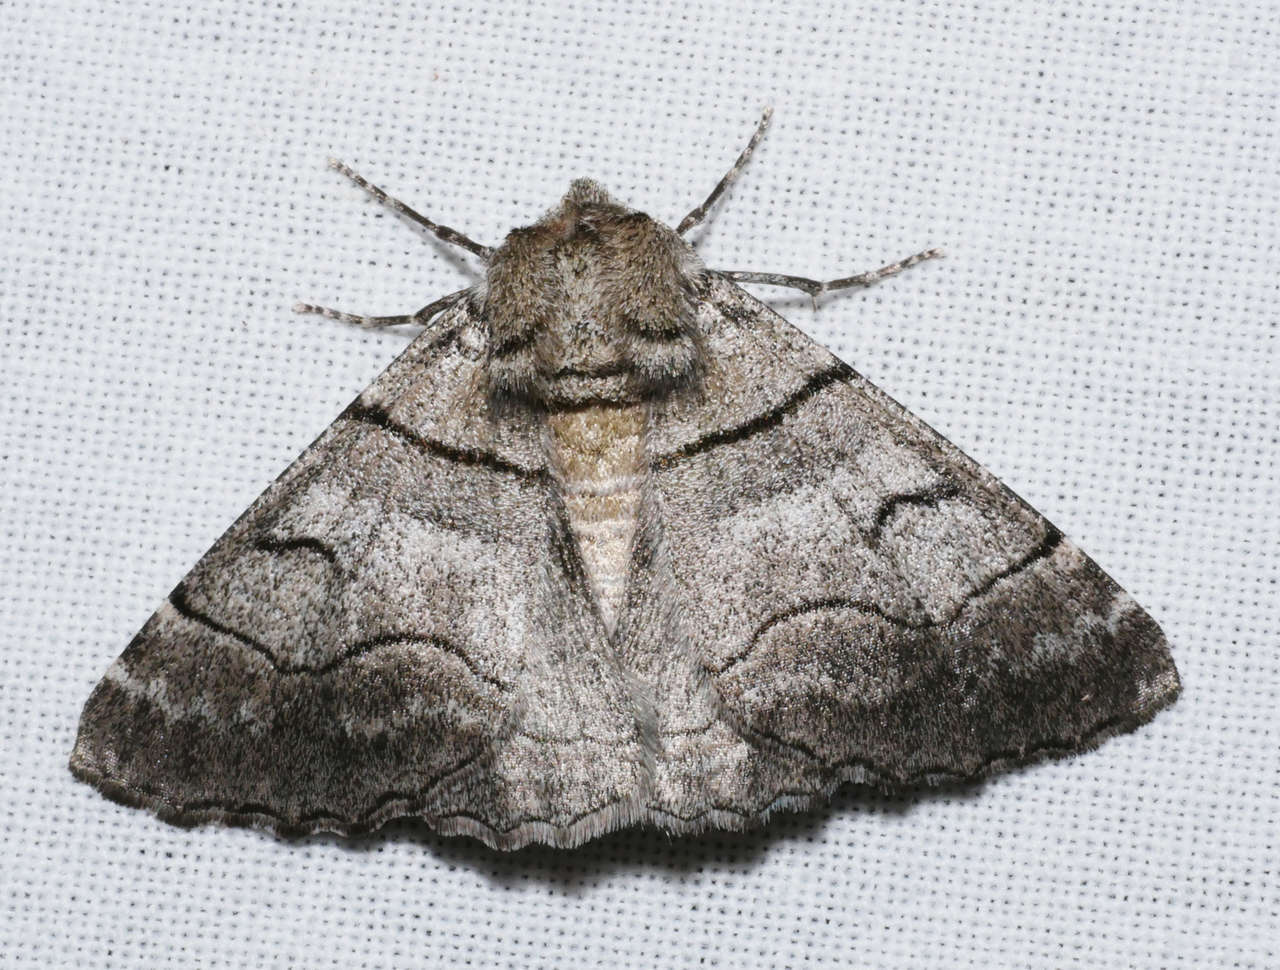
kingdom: Animalia
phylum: Arthropoda
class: Insecta
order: Lepidoptera
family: Geometridae
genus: Hypobapta
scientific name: Hypobapta diffundens
